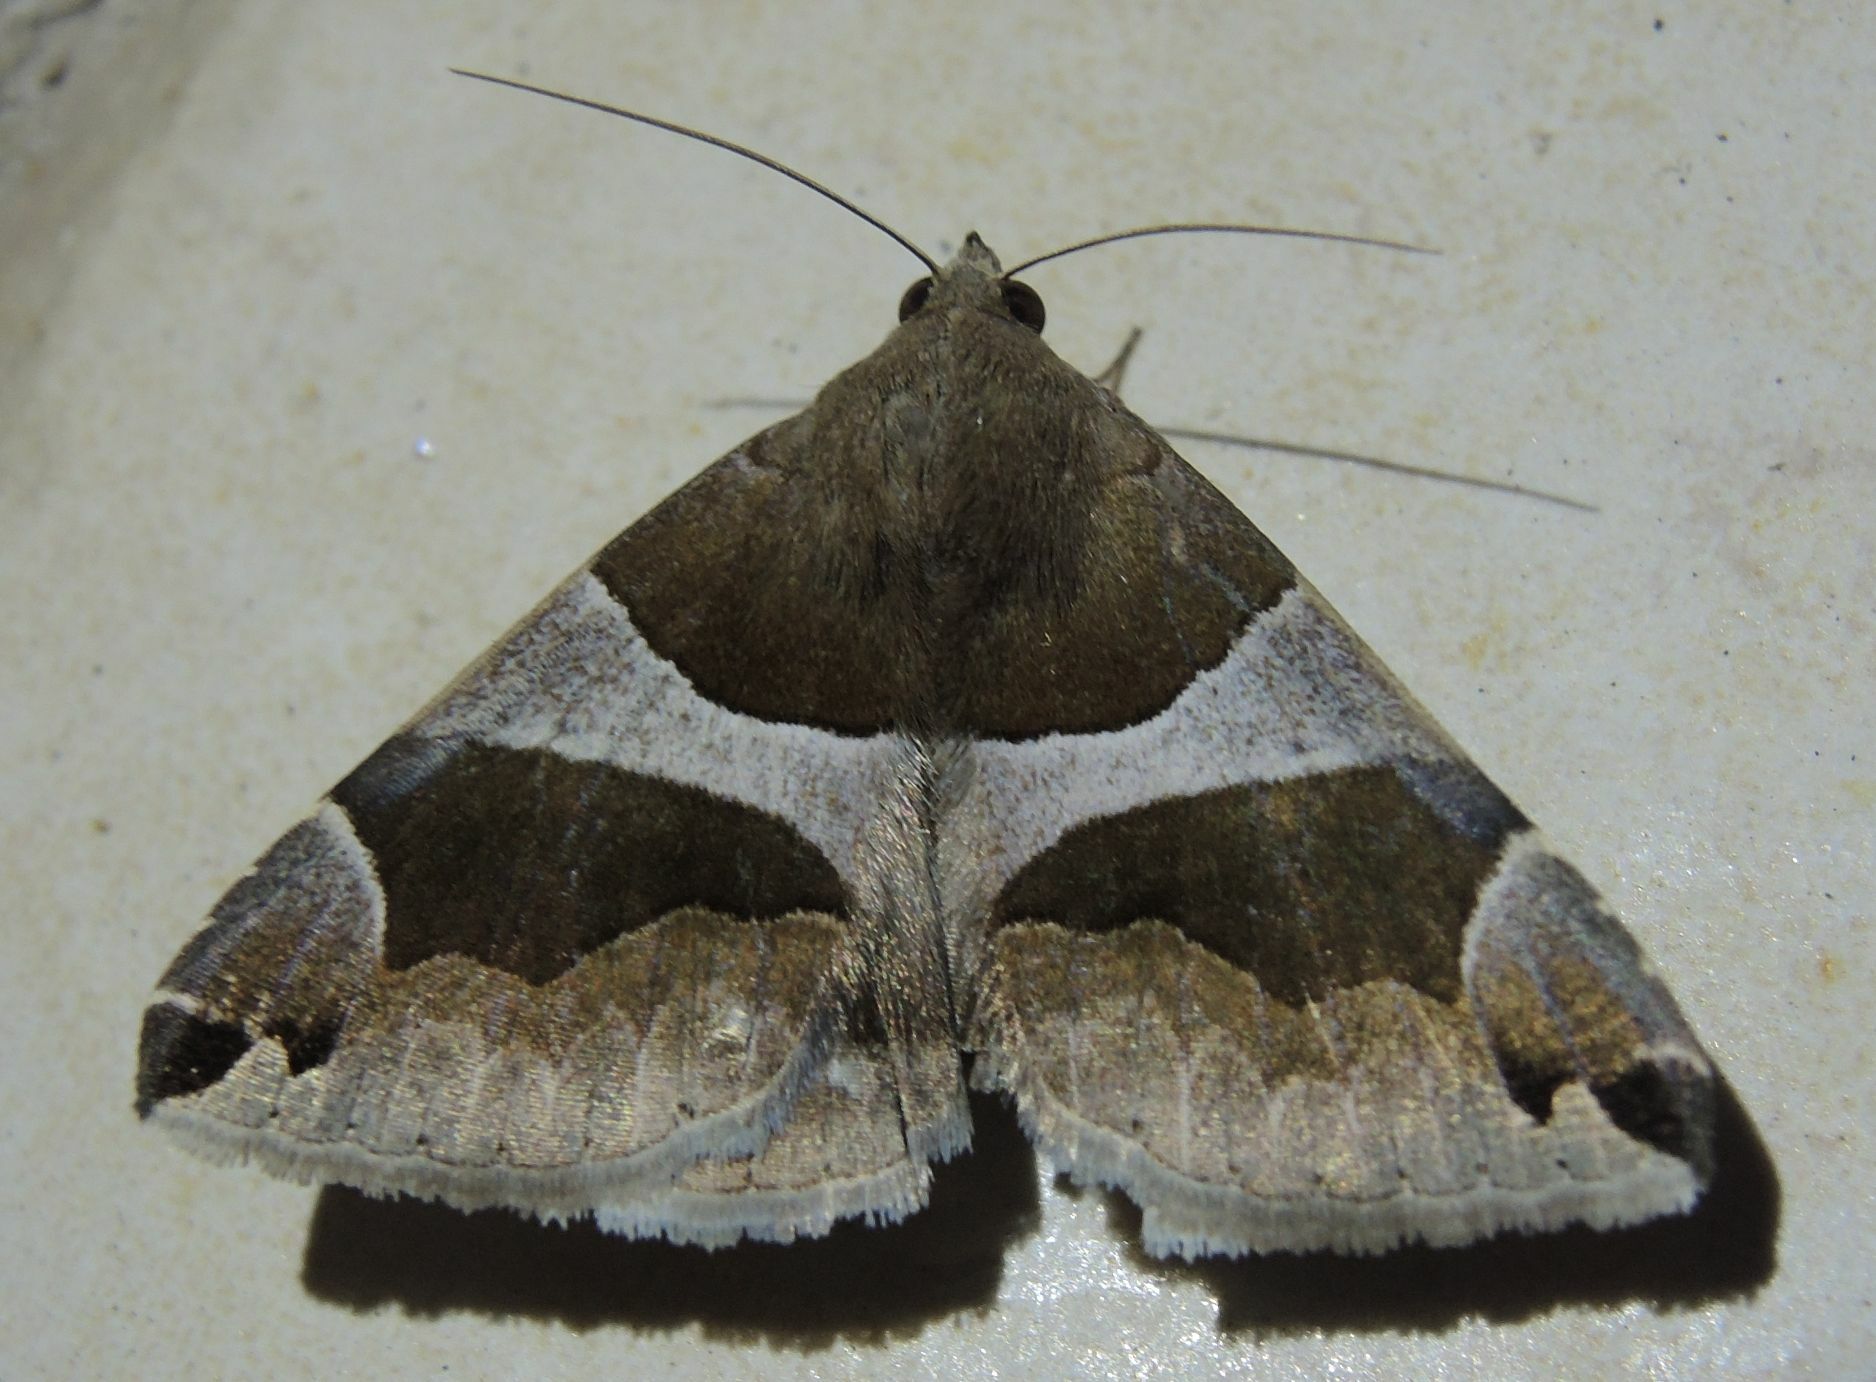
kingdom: Animalia
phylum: Arthropoda
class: Insecta
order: Lepidoptera
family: Erebidae
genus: Dysgonia
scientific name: Dysgonia algira
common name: Passenger
